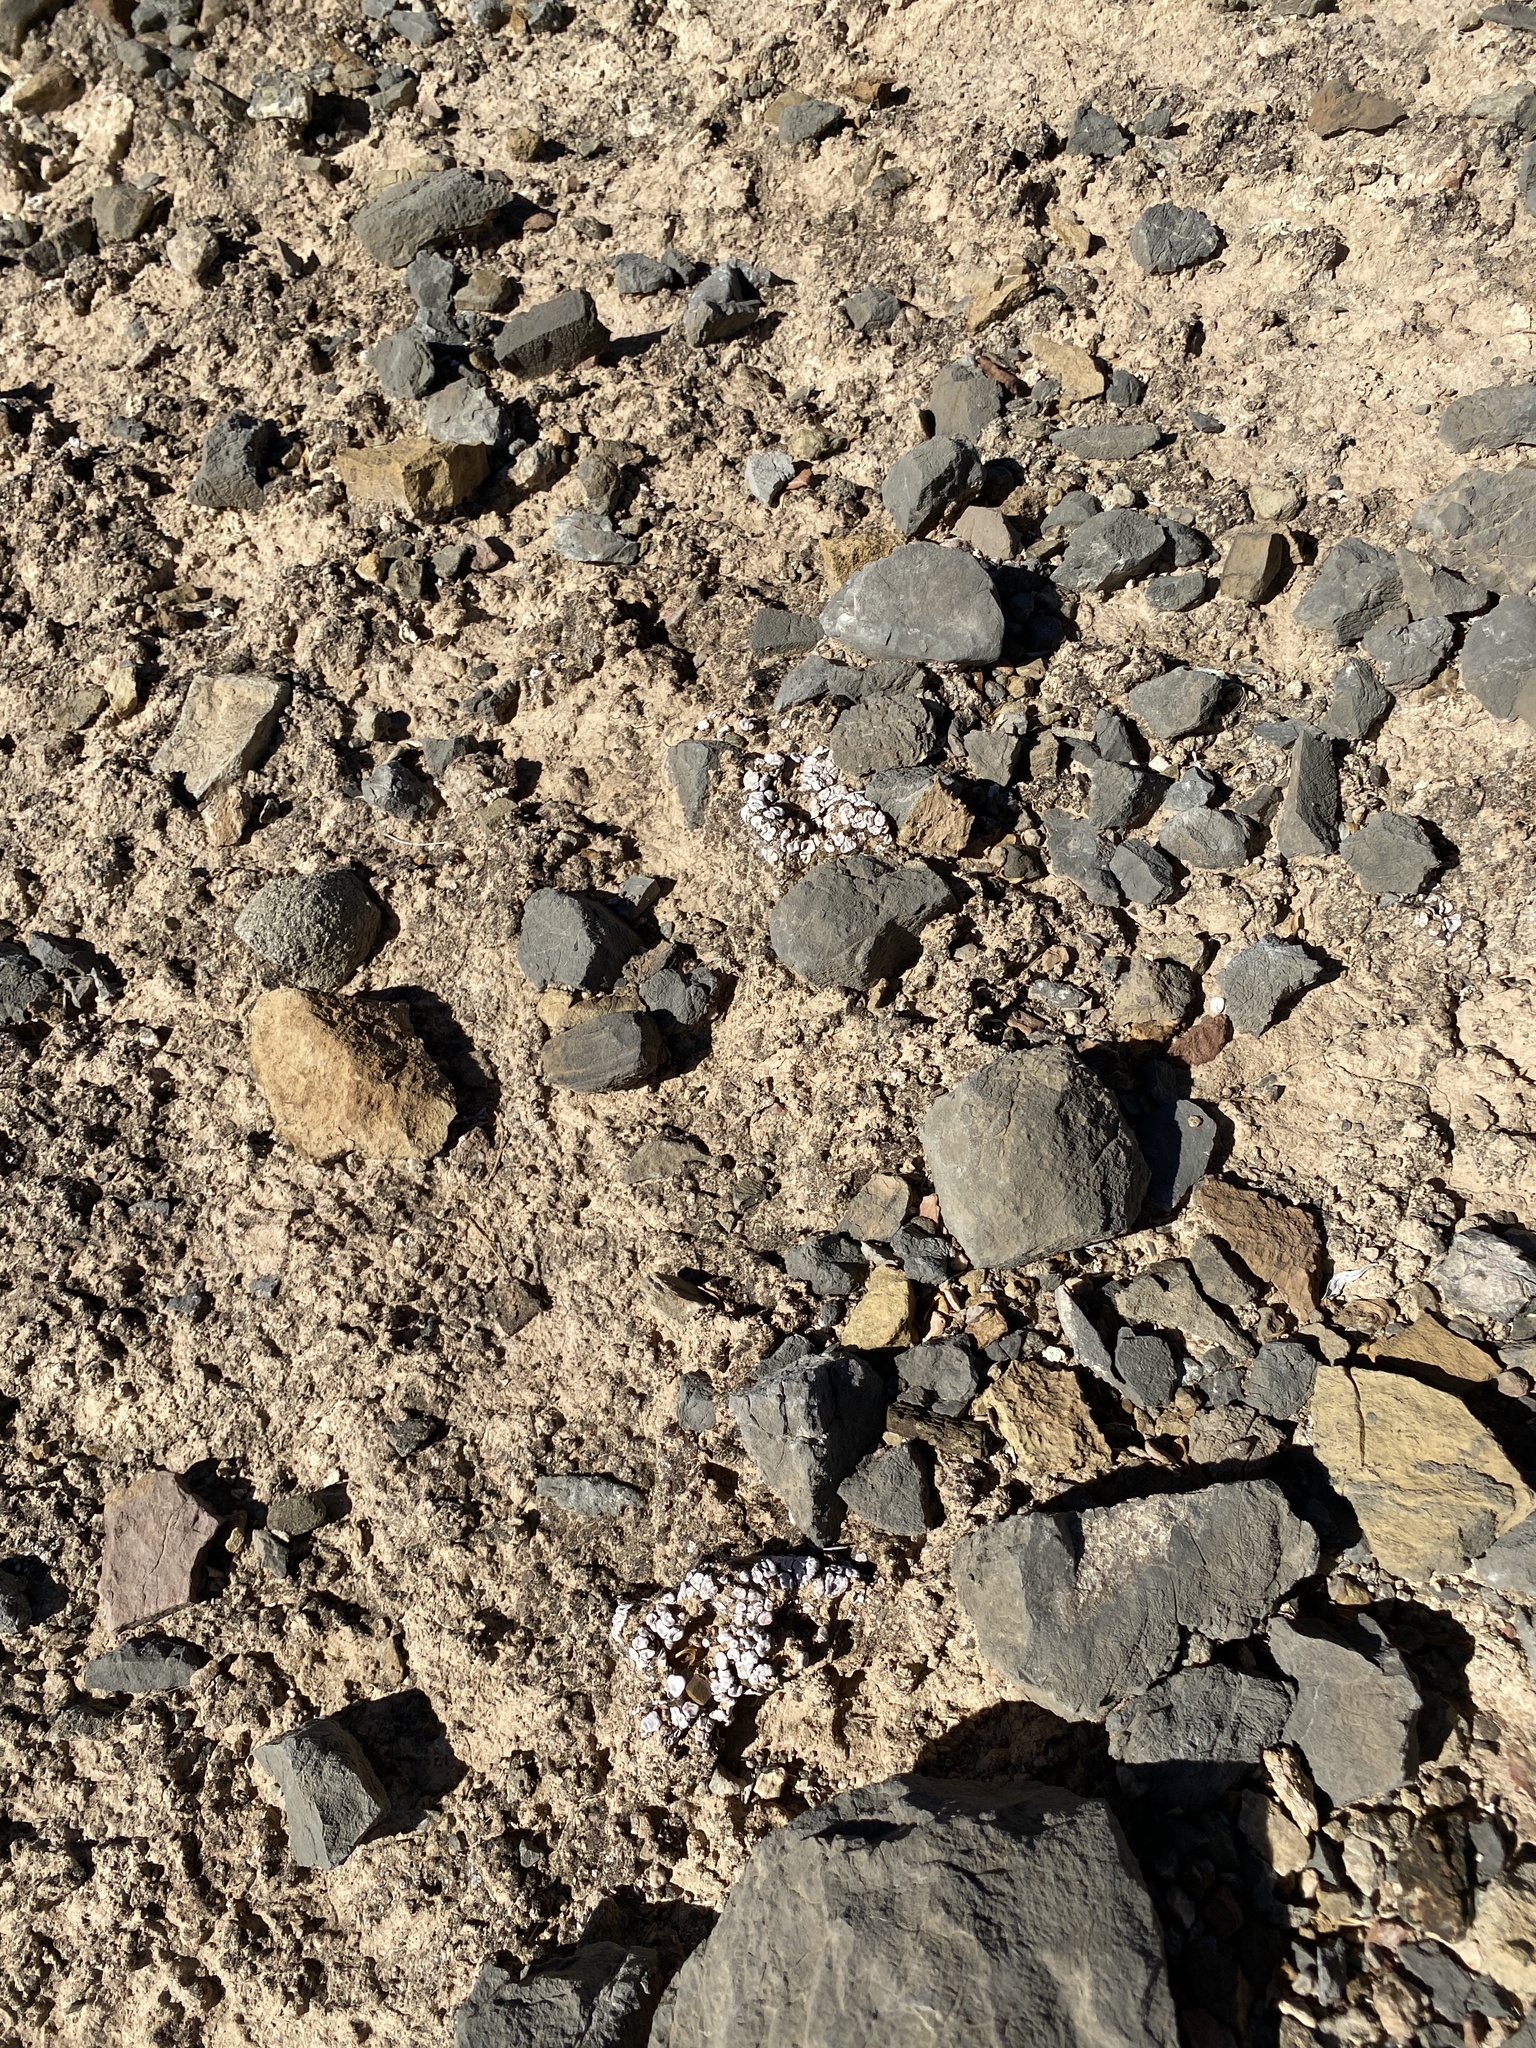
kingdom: Fungi
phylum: Ascomycota
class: Lecanoromycetes
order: Lecanorales
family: Psoraceae
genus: Psora
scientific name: Psora crenata
